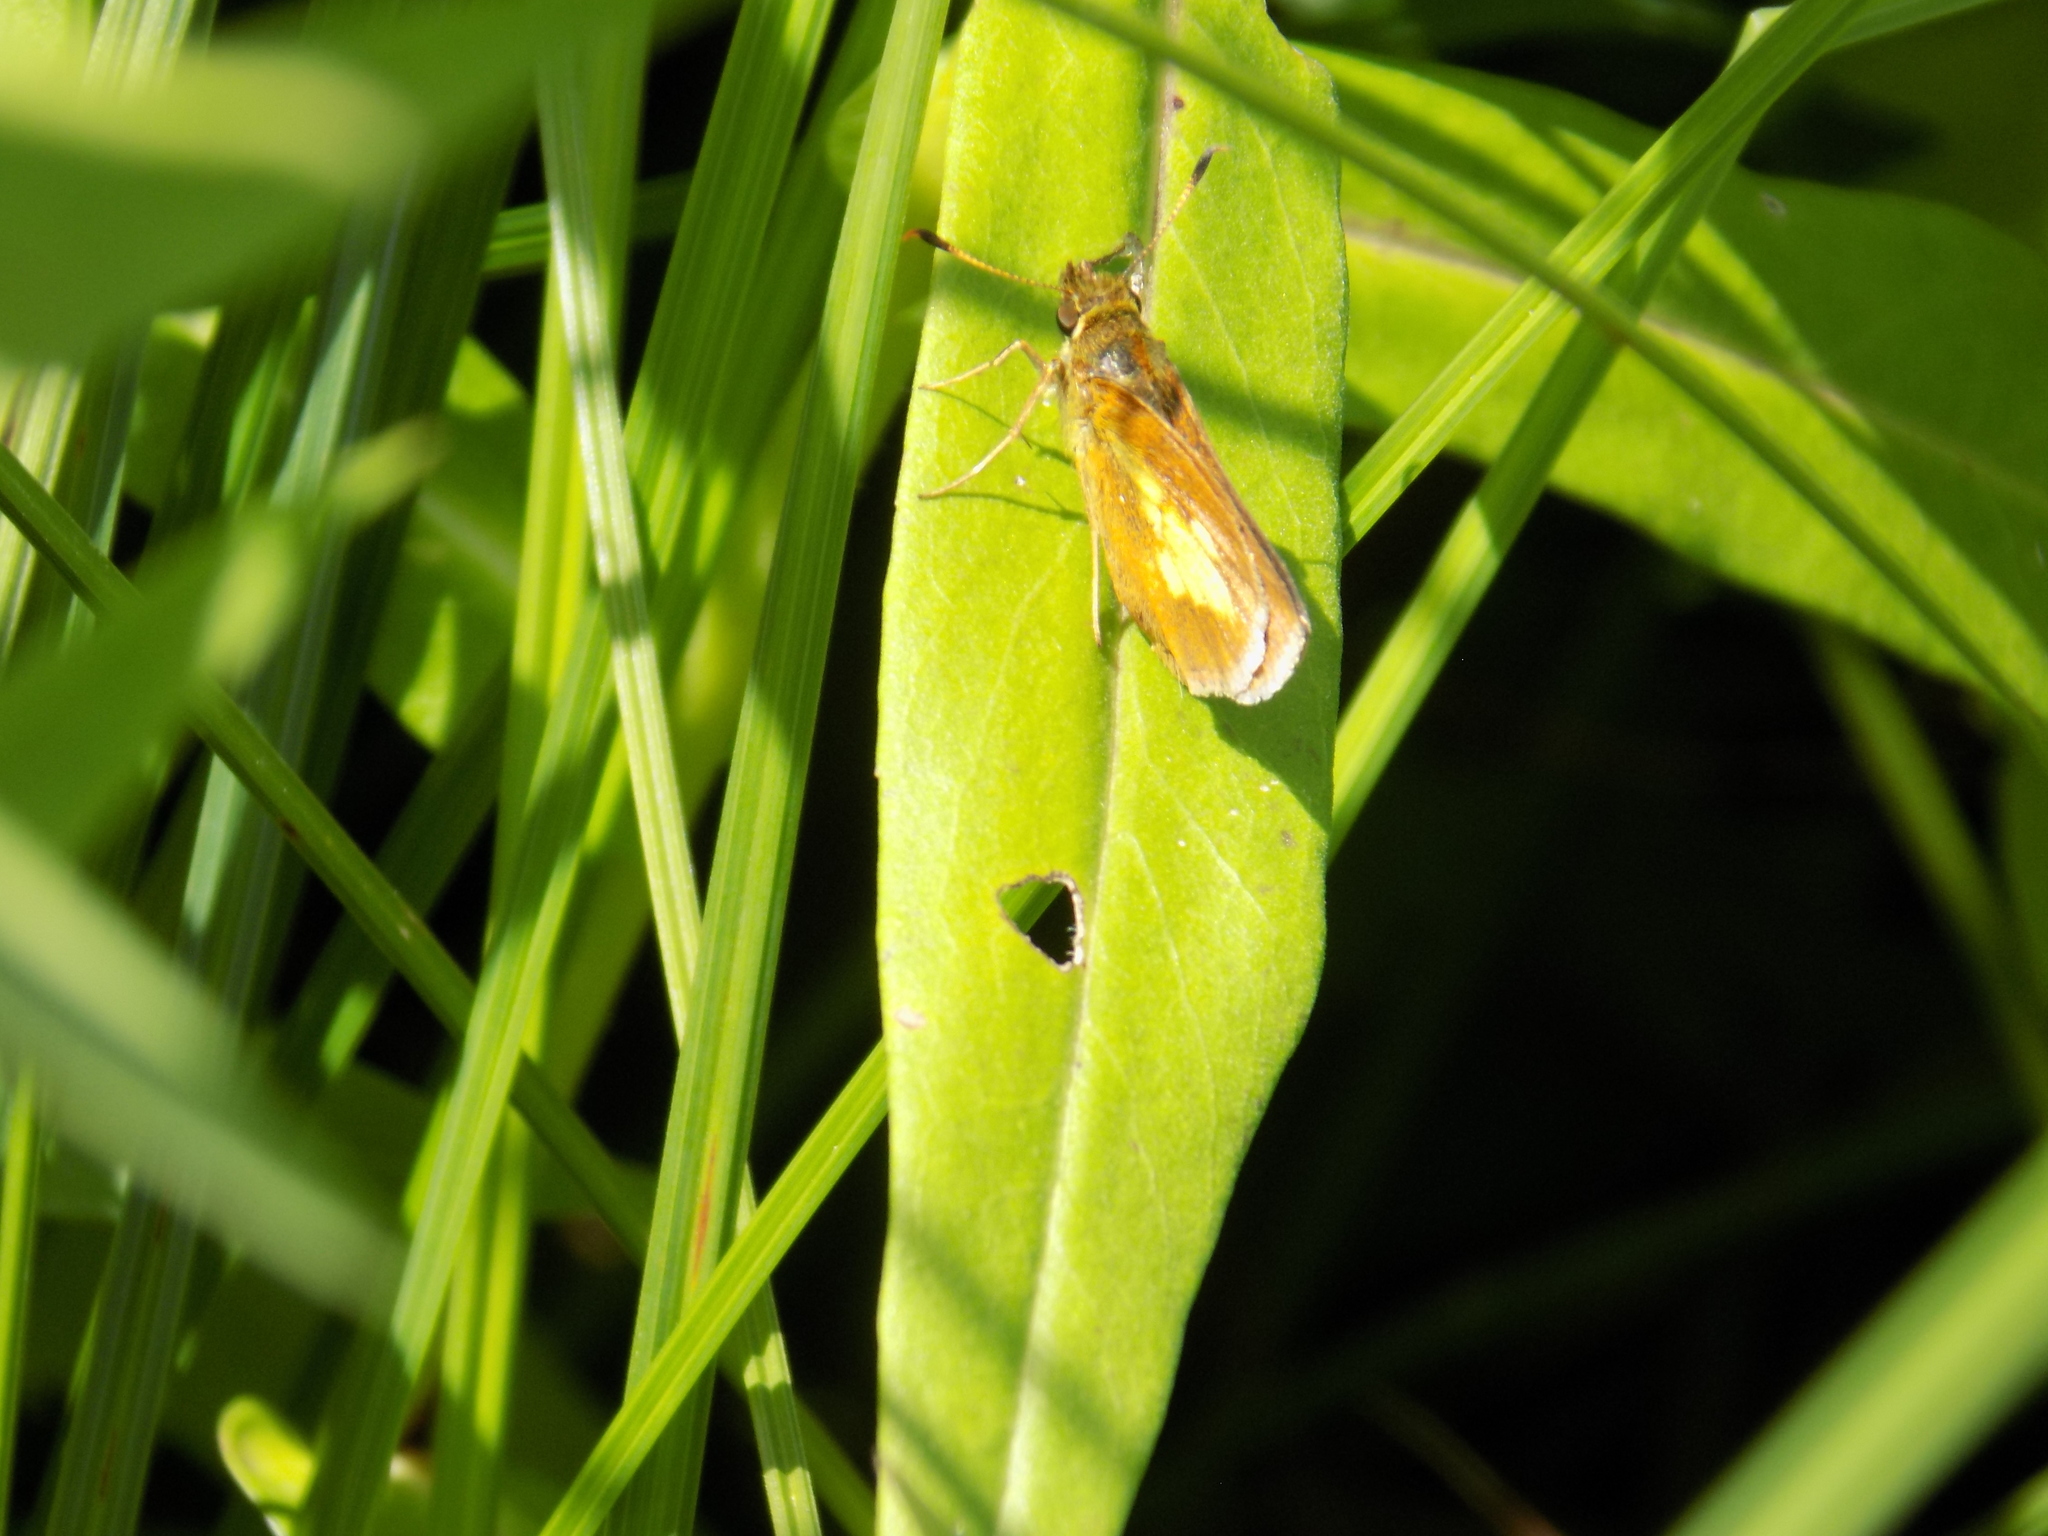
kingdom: Animalia
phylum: Arthropoda
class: Insecta
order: Lepidoptera
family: Hesperiidae
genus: Poanes
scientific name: Poanes massasoit
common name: Mulberrywing
